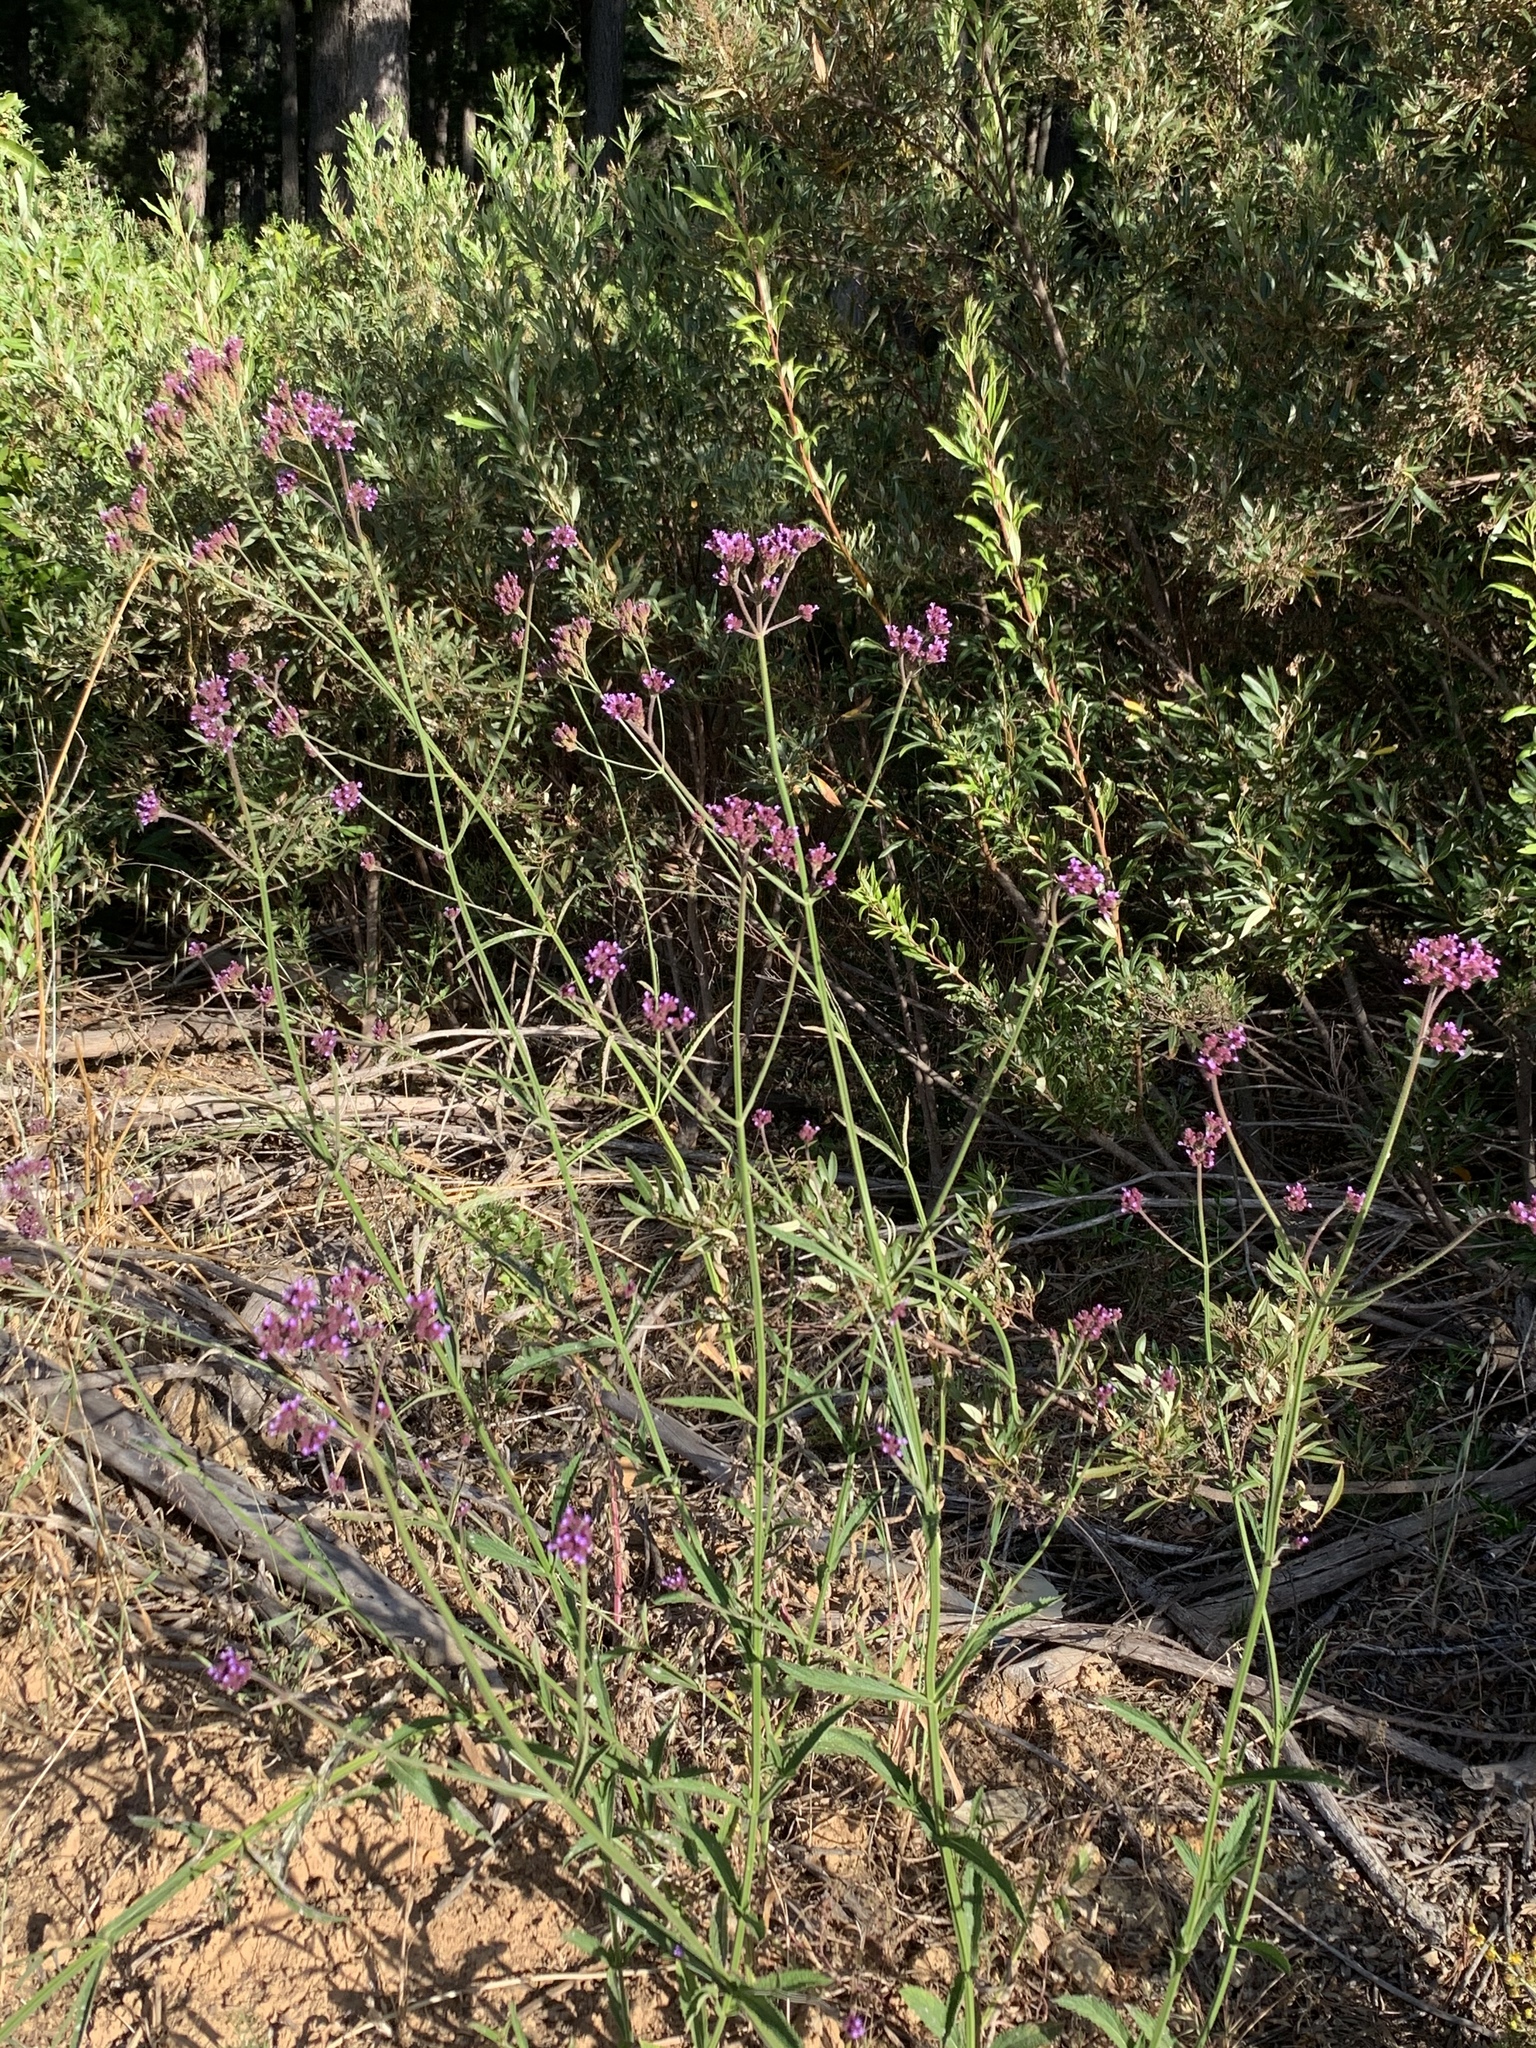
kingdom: Plantae
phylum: Tracheophyta
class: Magnoliopsida
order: Lamiales
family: Verbenaceae
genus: Verbena
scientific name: Verbena bonariensis
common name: Purpletop vervain
